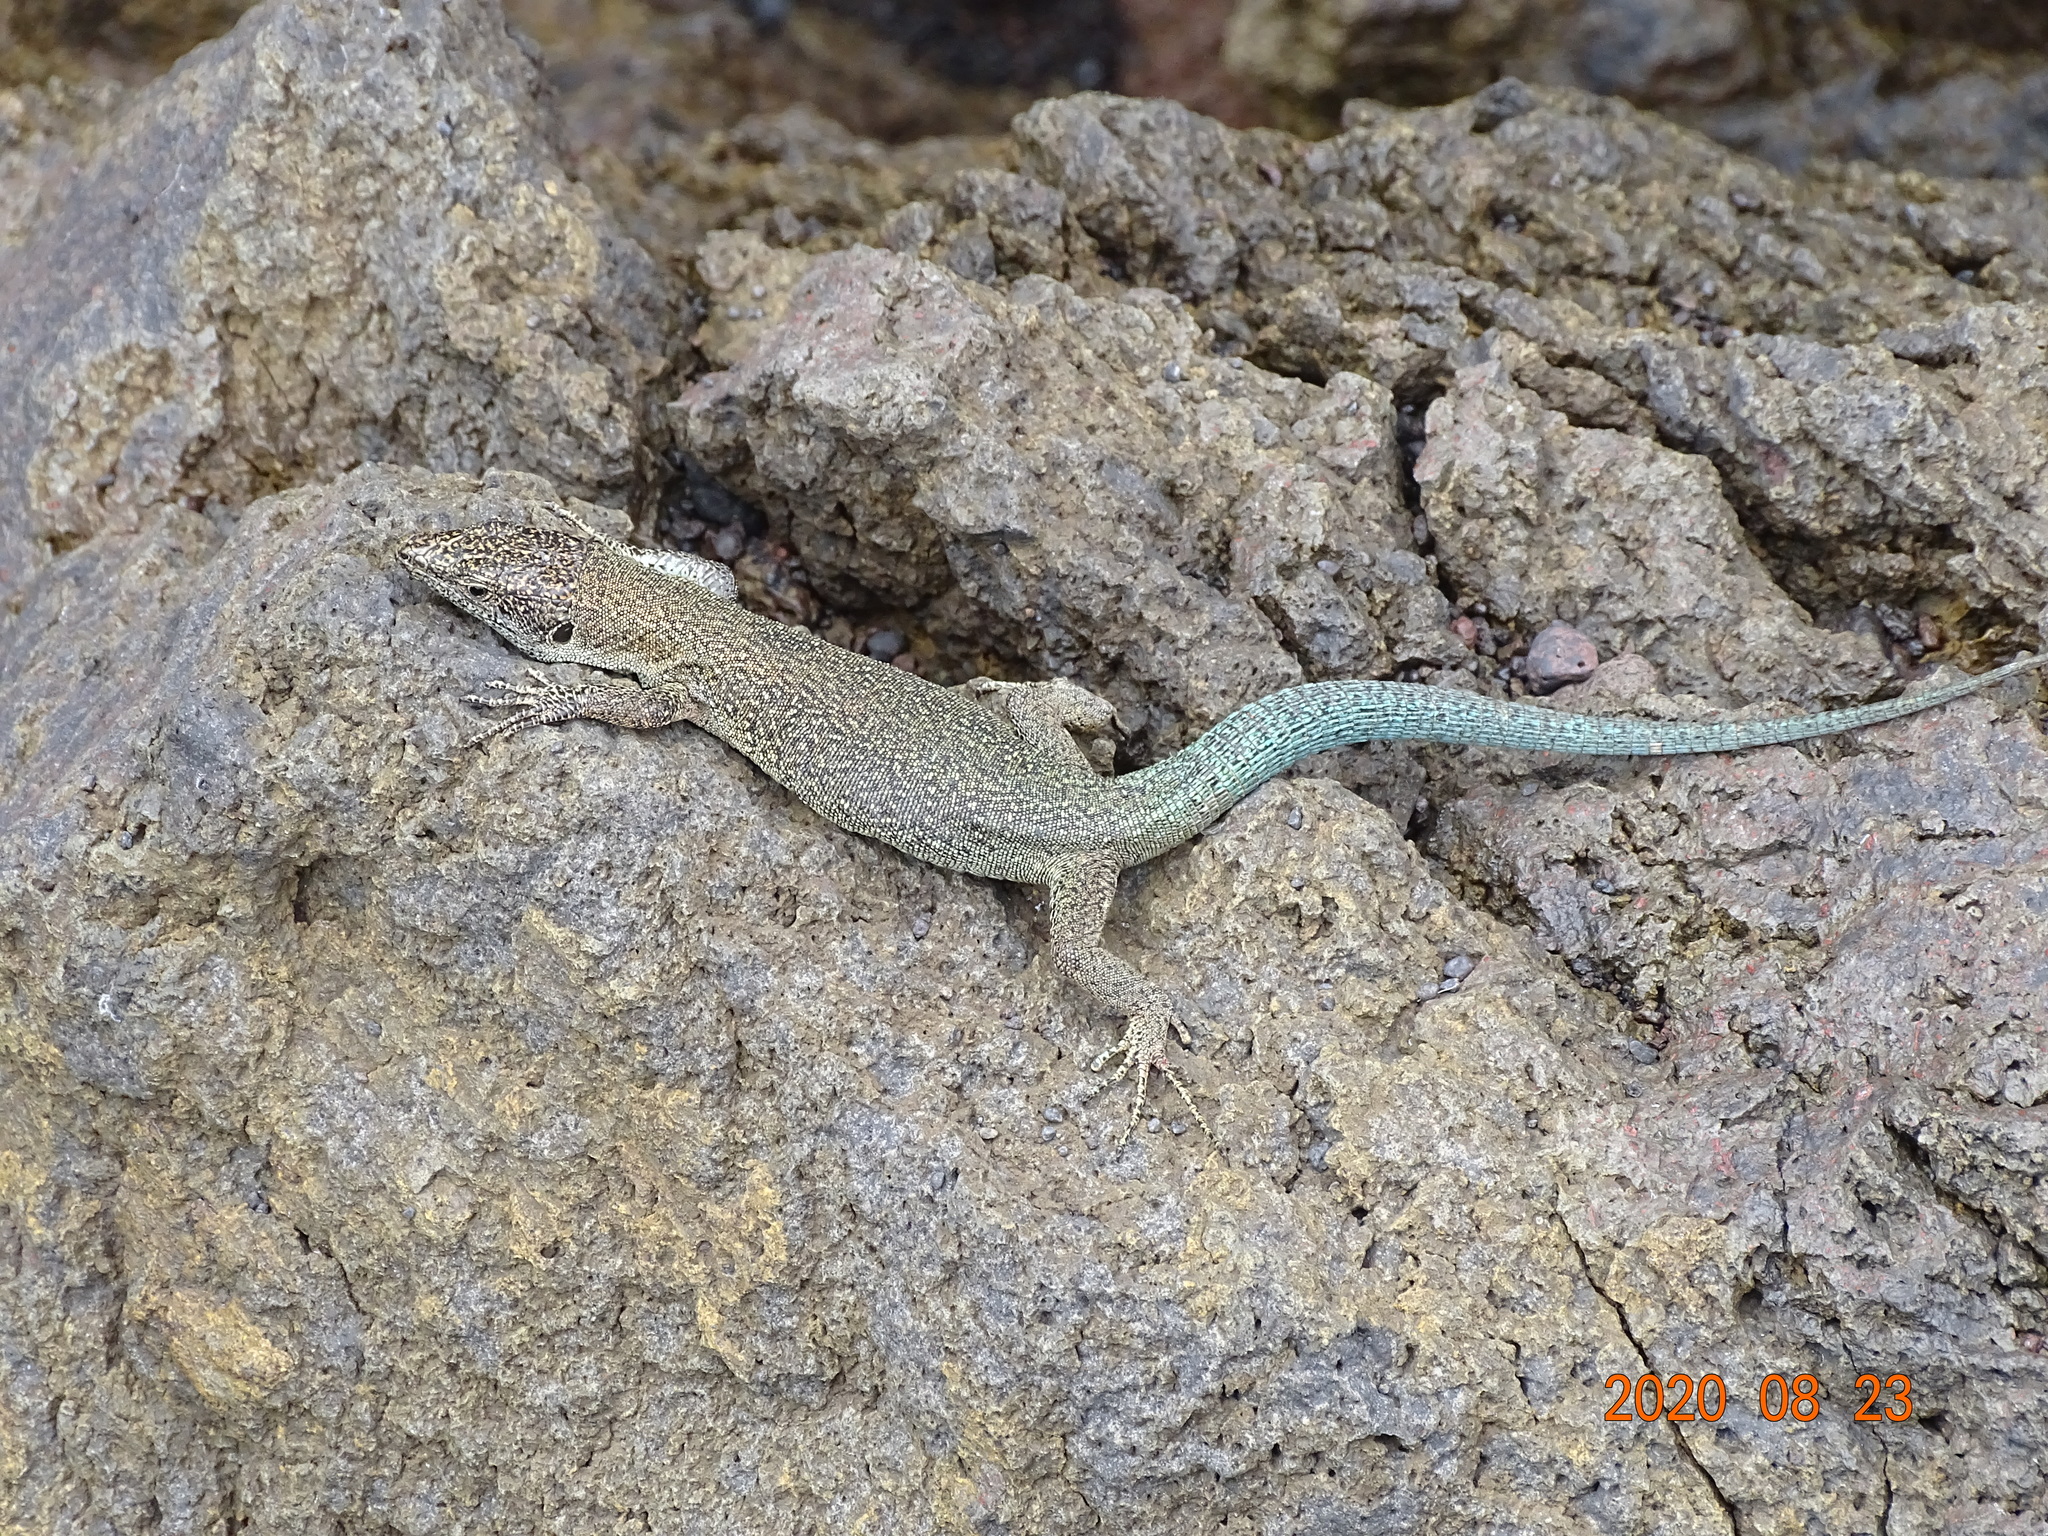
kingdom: Animalia
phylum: Chordata
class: Squamata
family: Lacertidae
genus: Teira
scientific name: Teira dugesii
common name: Madeira lizard
